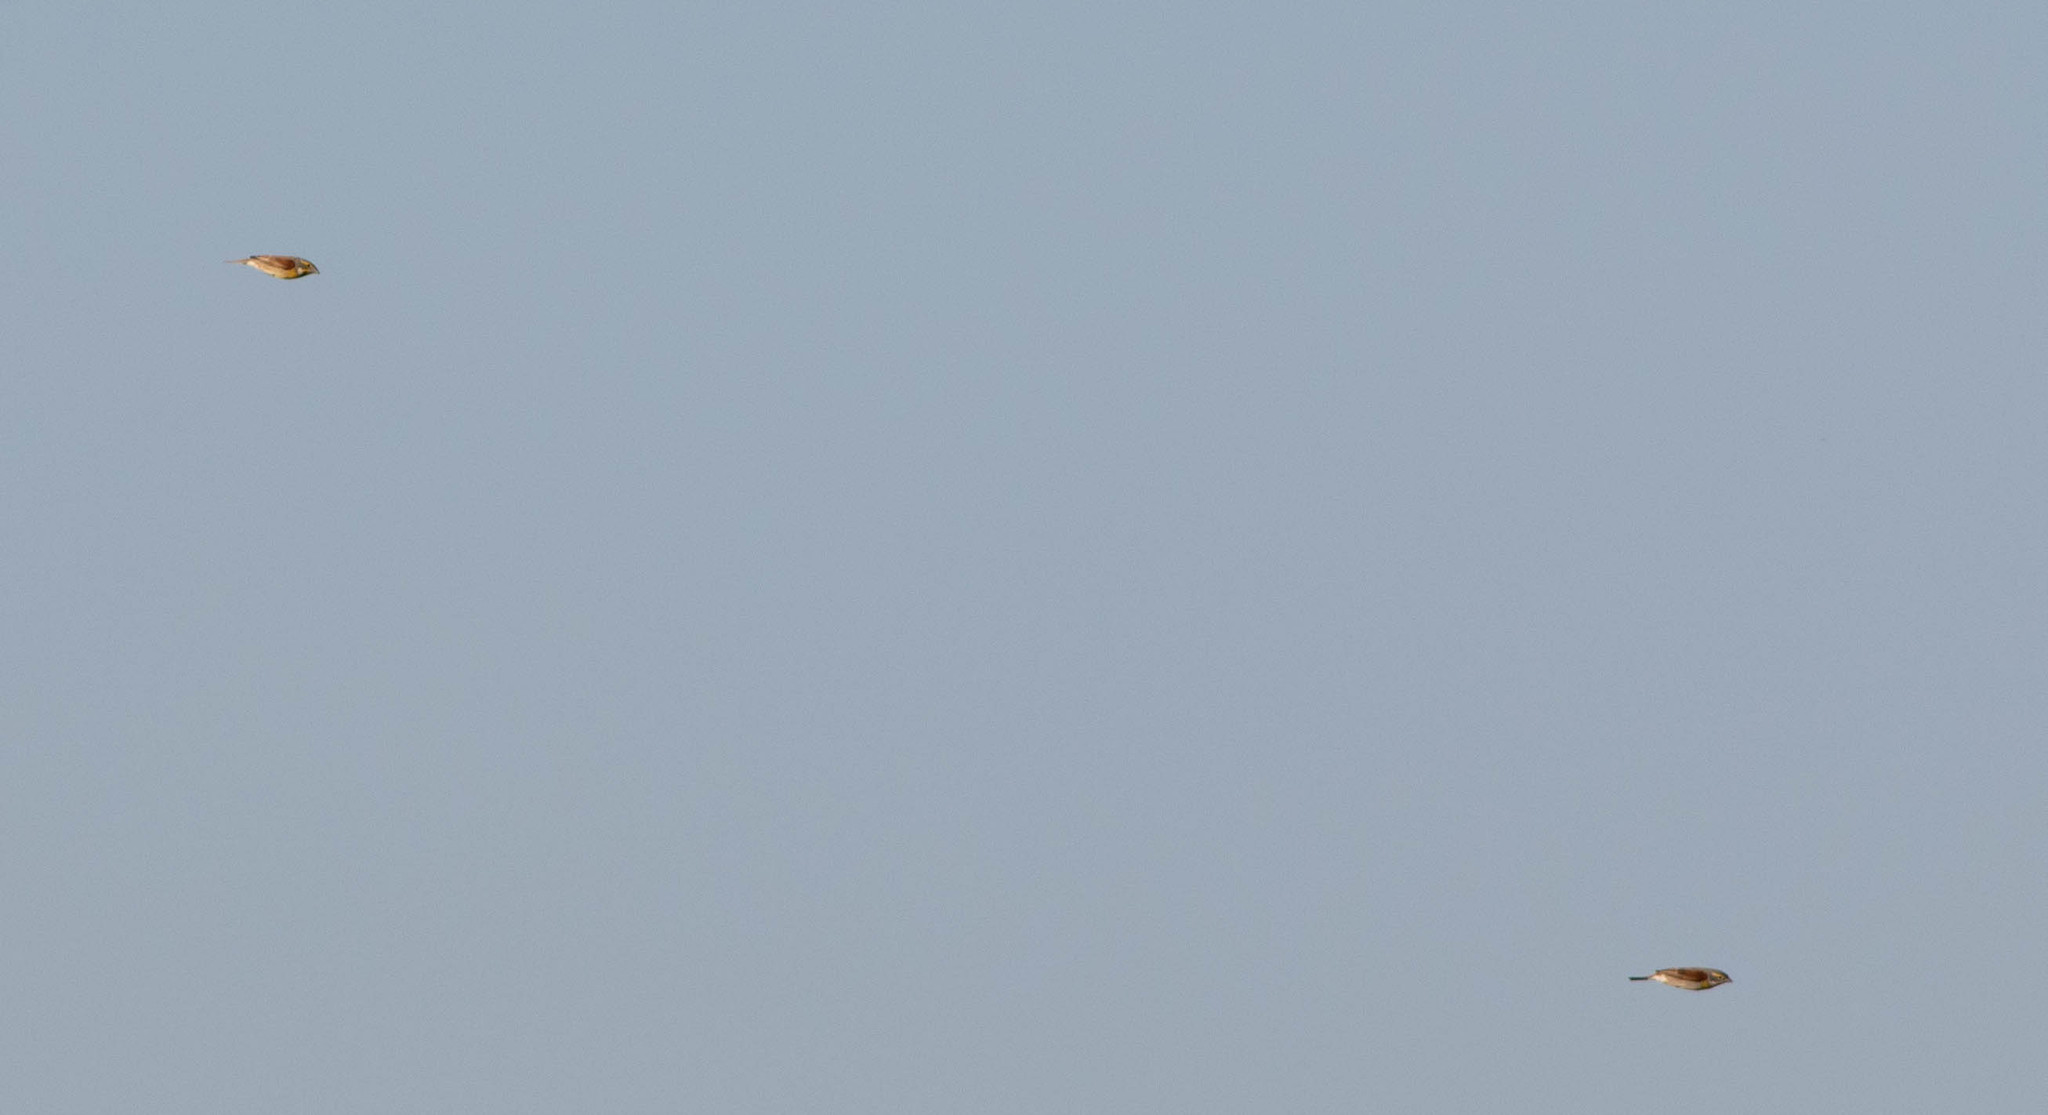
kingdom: Animalia
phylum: Chordata
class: Aves
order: Passeriformes
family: Cardinalidae
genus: Spiza
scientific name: Spiza americana
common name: Dickcissel
